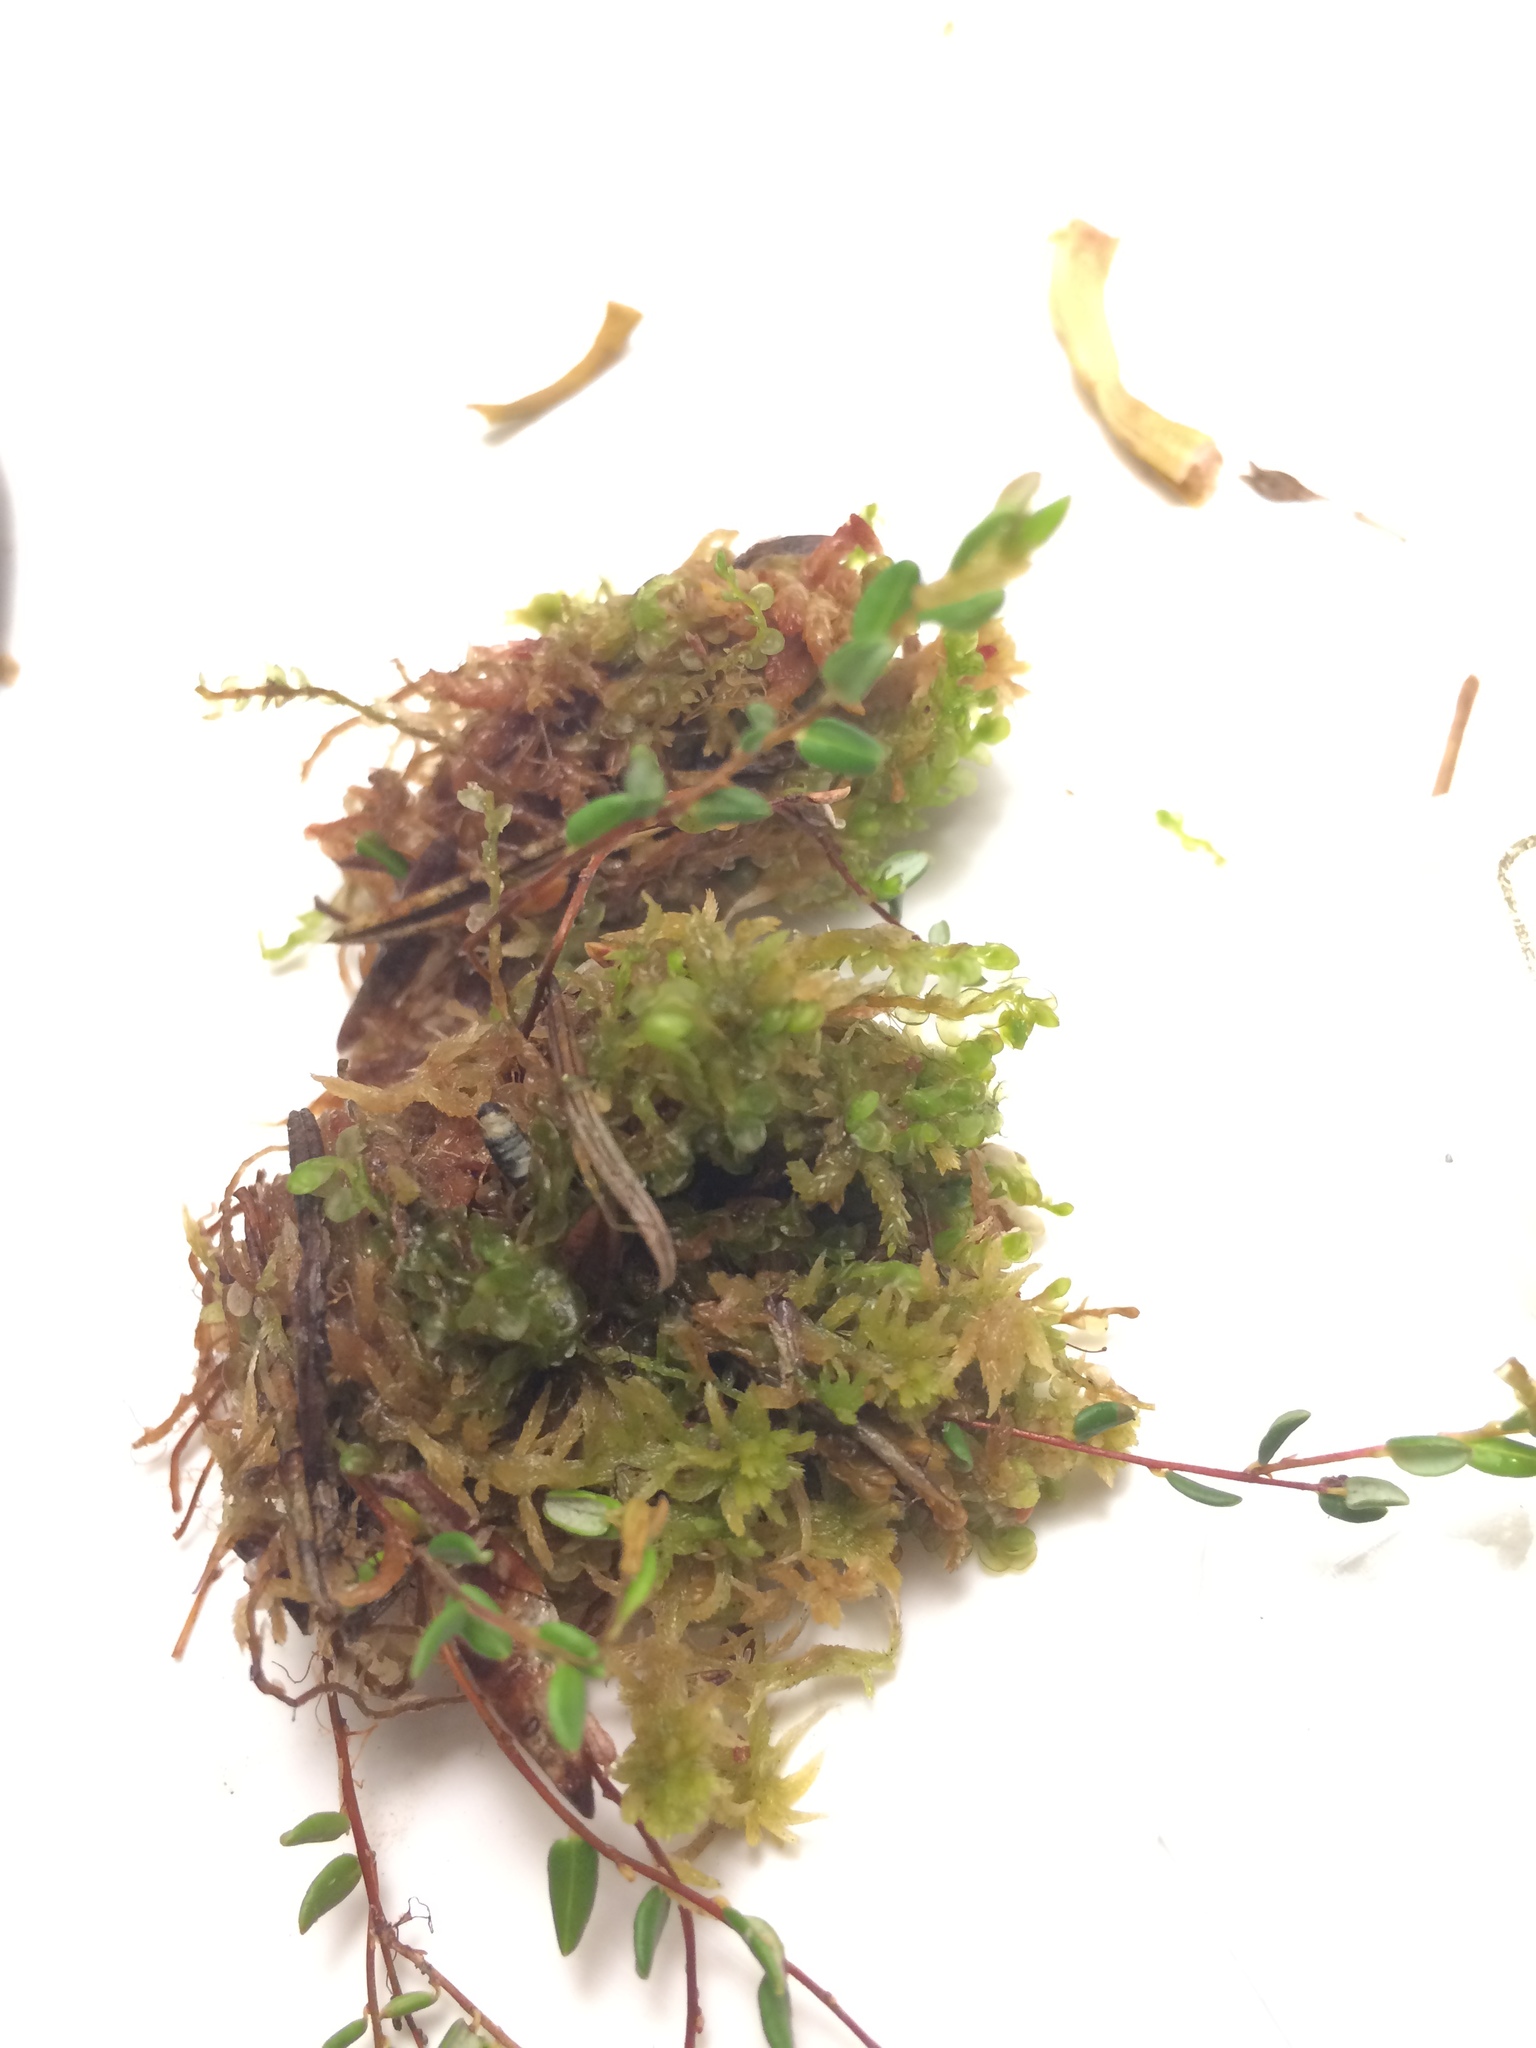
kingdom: Plantae
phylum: Marchantiophyta
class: Jungermanniopsida
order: Jungermanniales
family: Myliaceae
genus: Mylia
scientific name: Mylia anomala
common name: Anomalous flapwort
